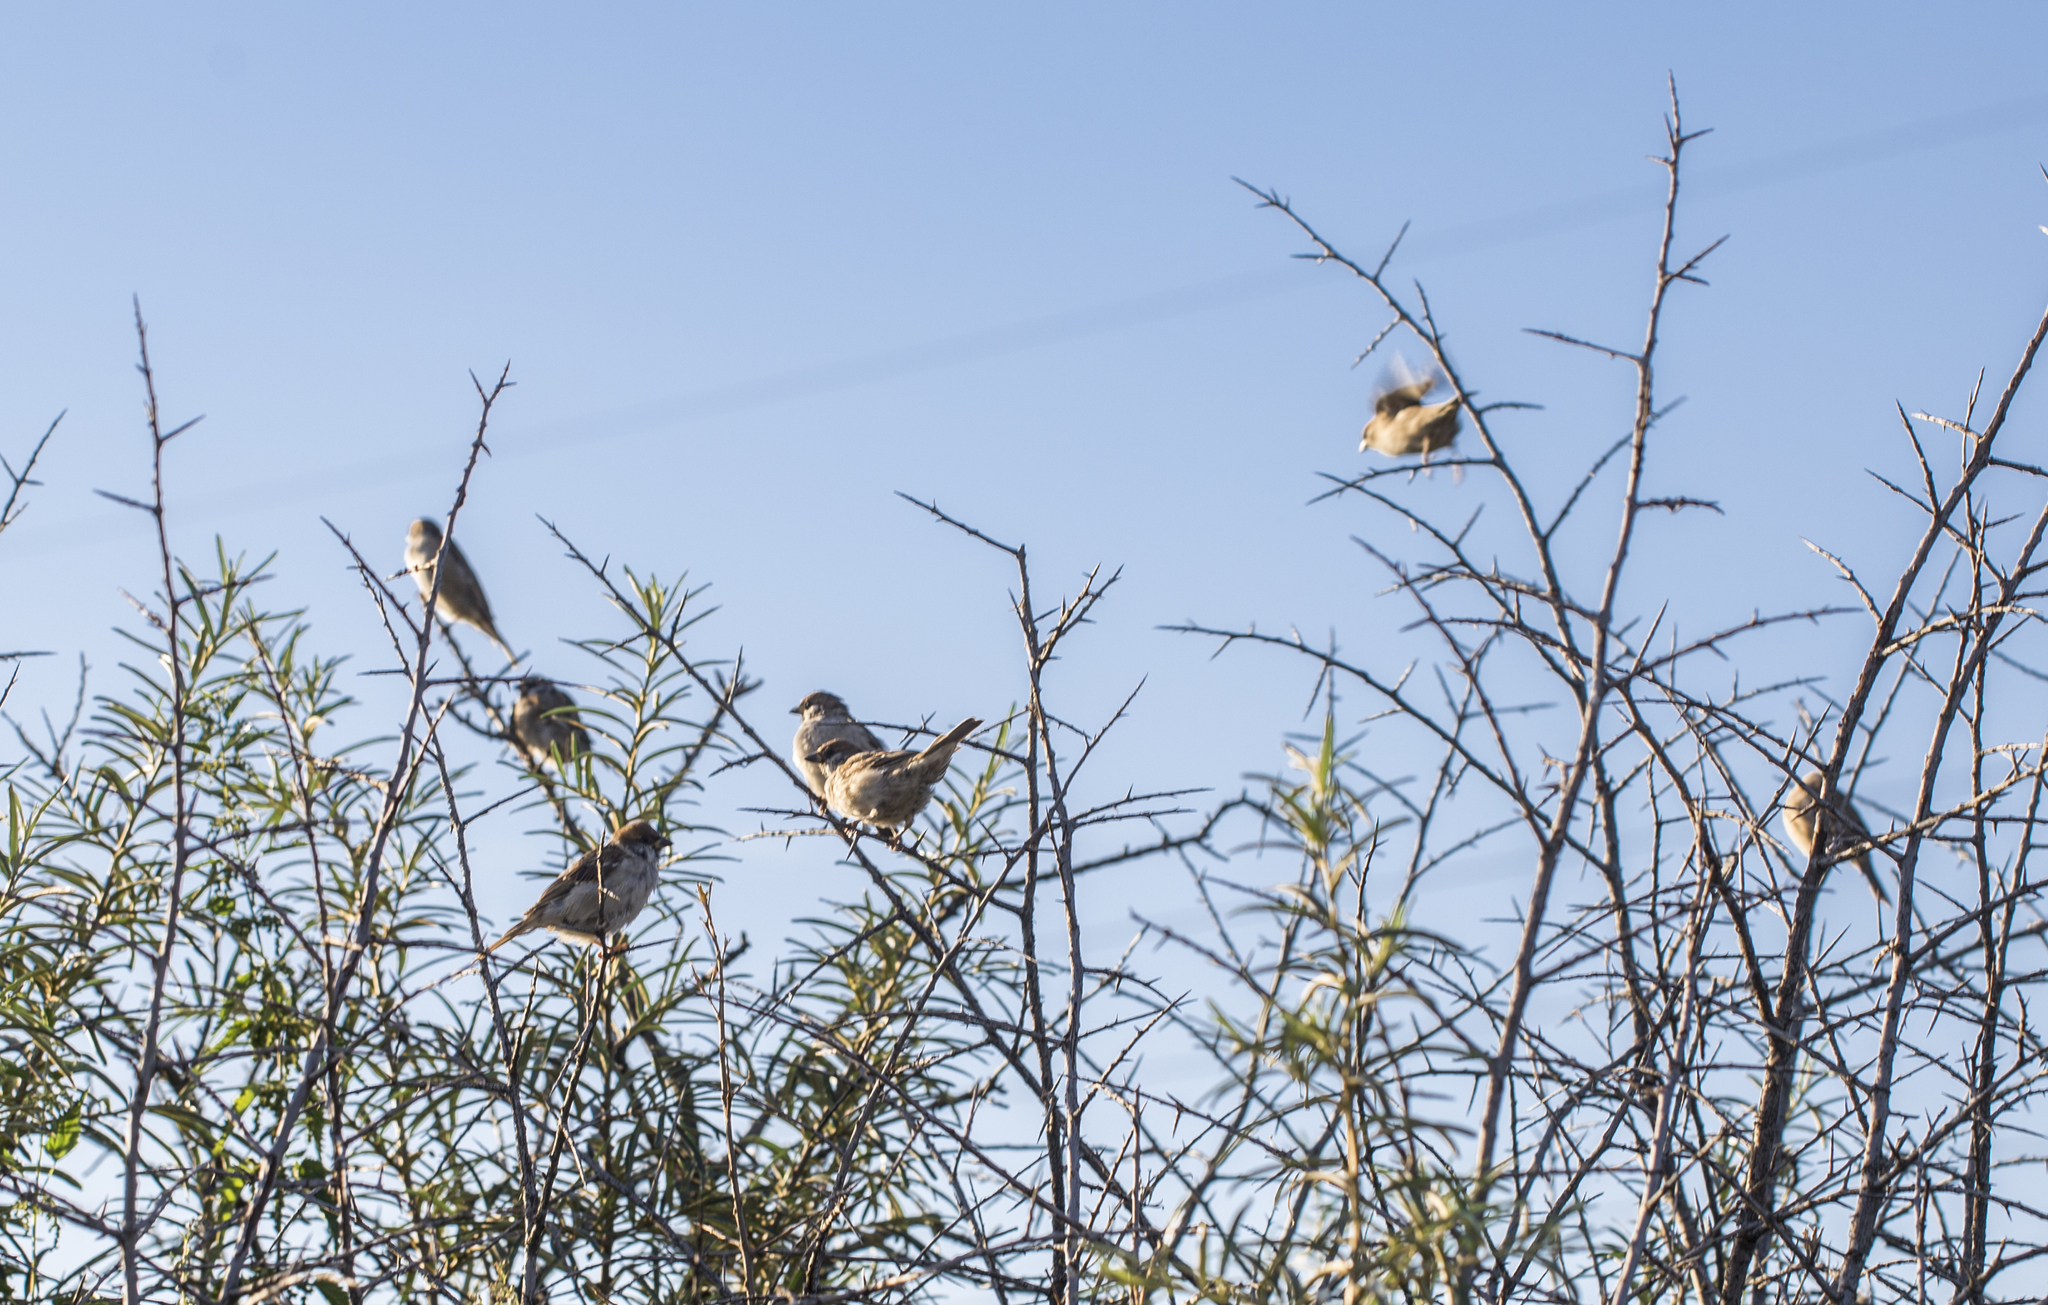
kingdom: Animalia
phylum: Chordata
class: Aves
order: Passeriformes
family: Passeridae
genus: Passer
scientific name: Passer montanus
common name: Eurasian tree sparrow
